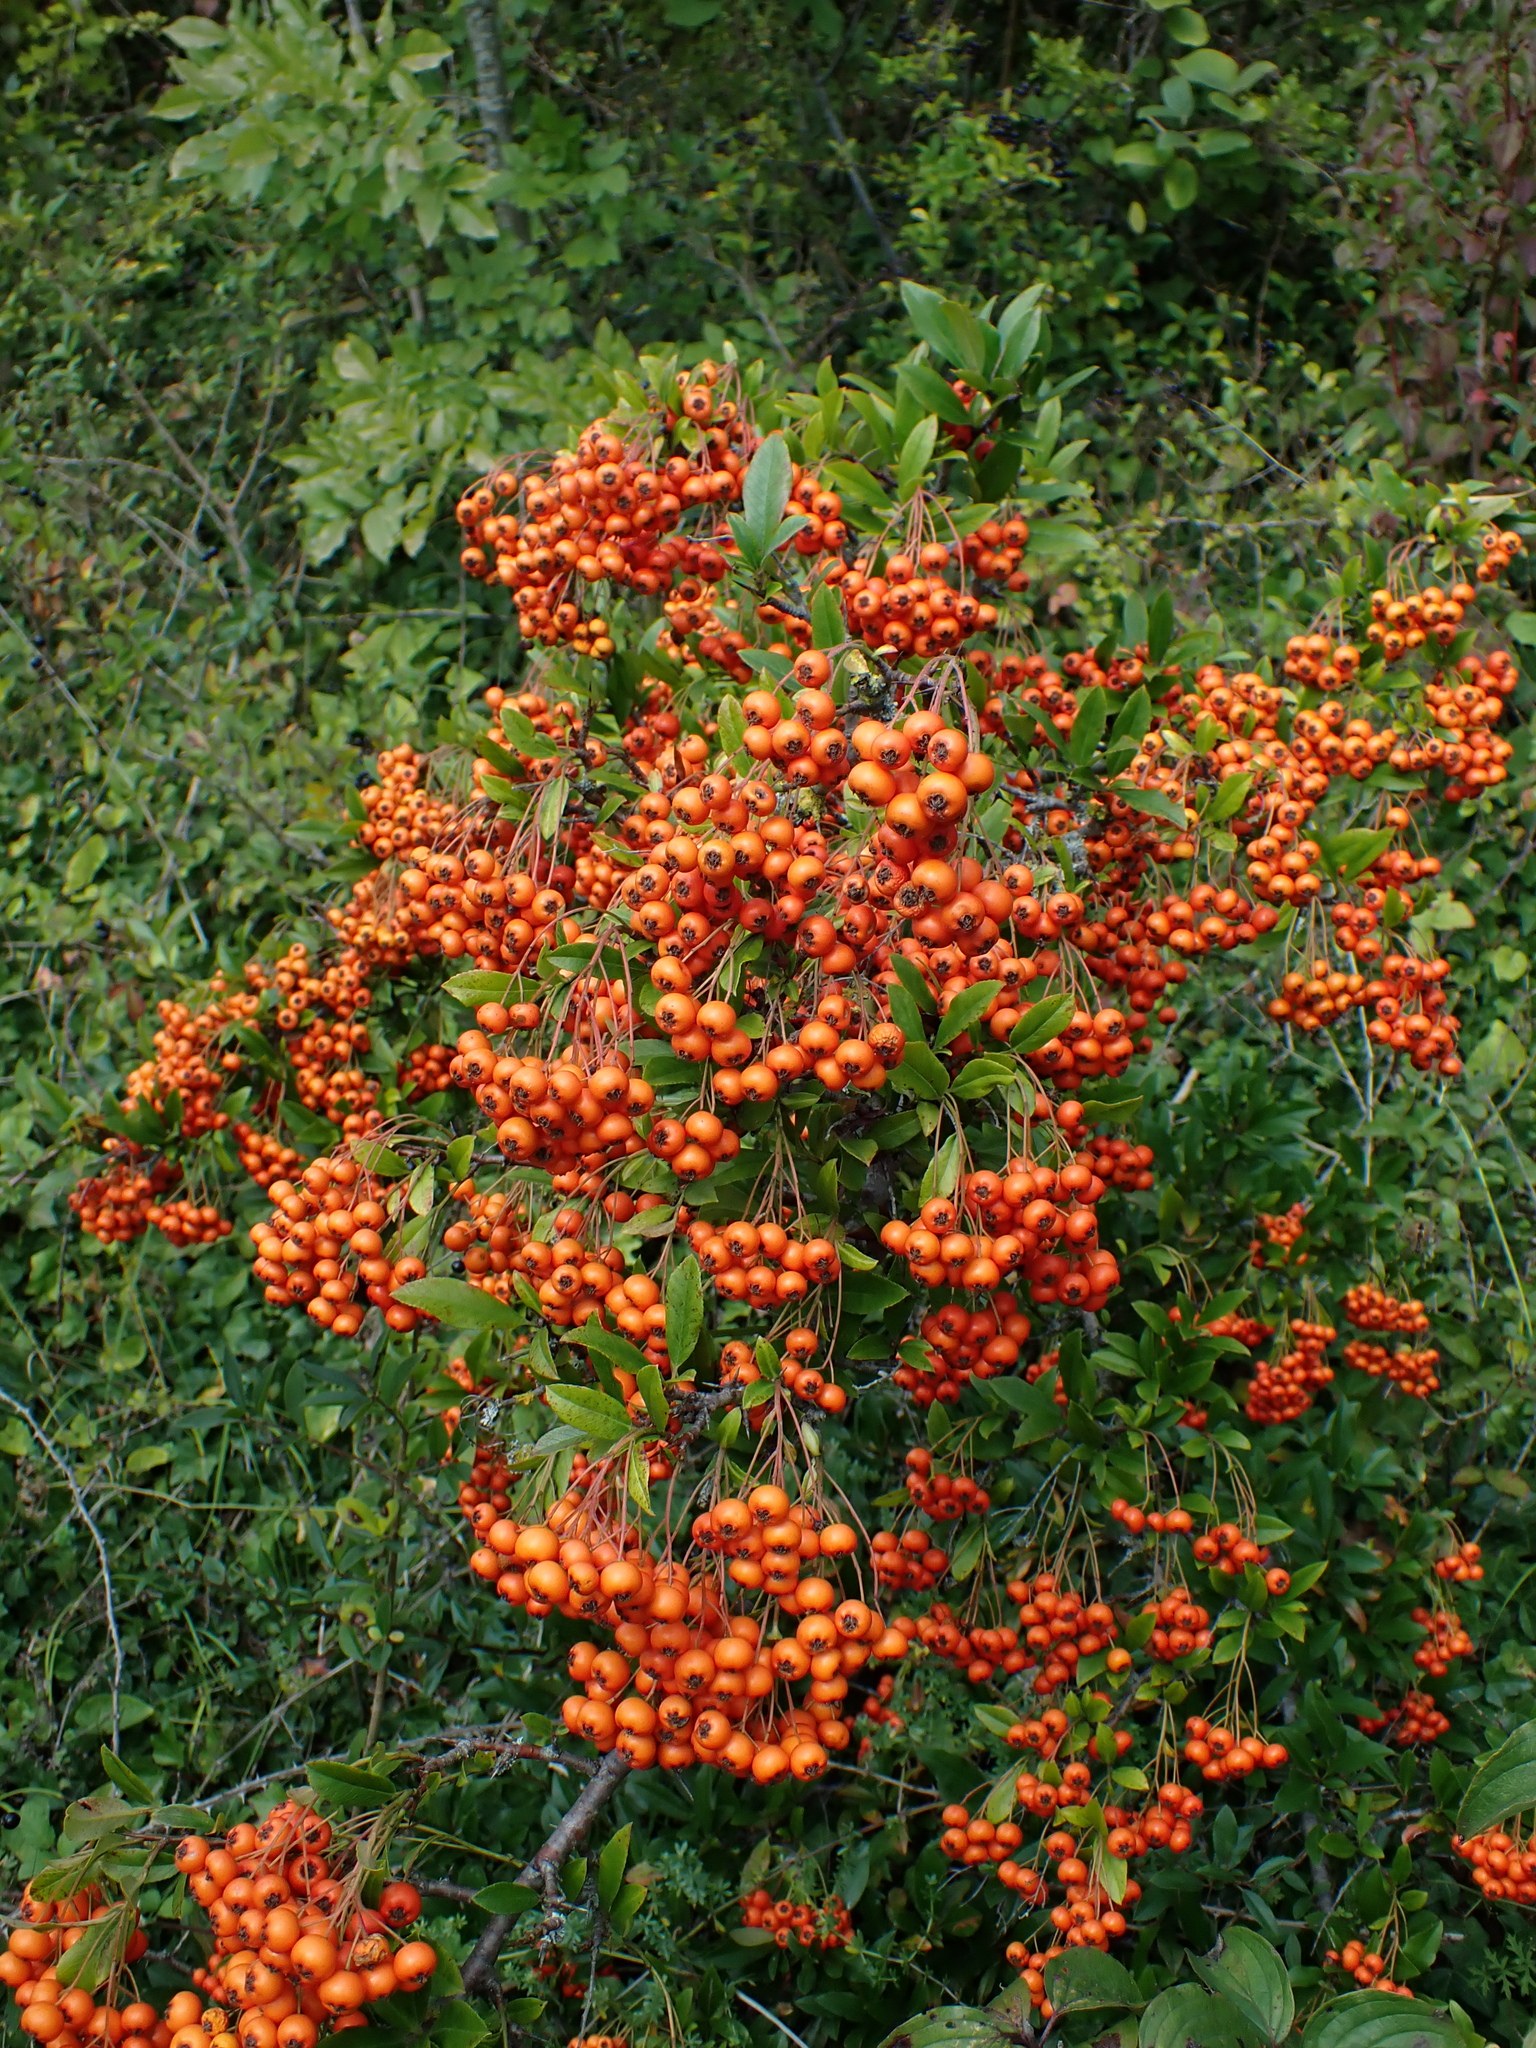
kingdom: Plantae
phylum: Tracheophyta
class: Magnoliopsida
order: Rosales
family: Rosaceae
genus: Pyracantha
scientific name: Pyracantha coccinea
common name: Firethorn
